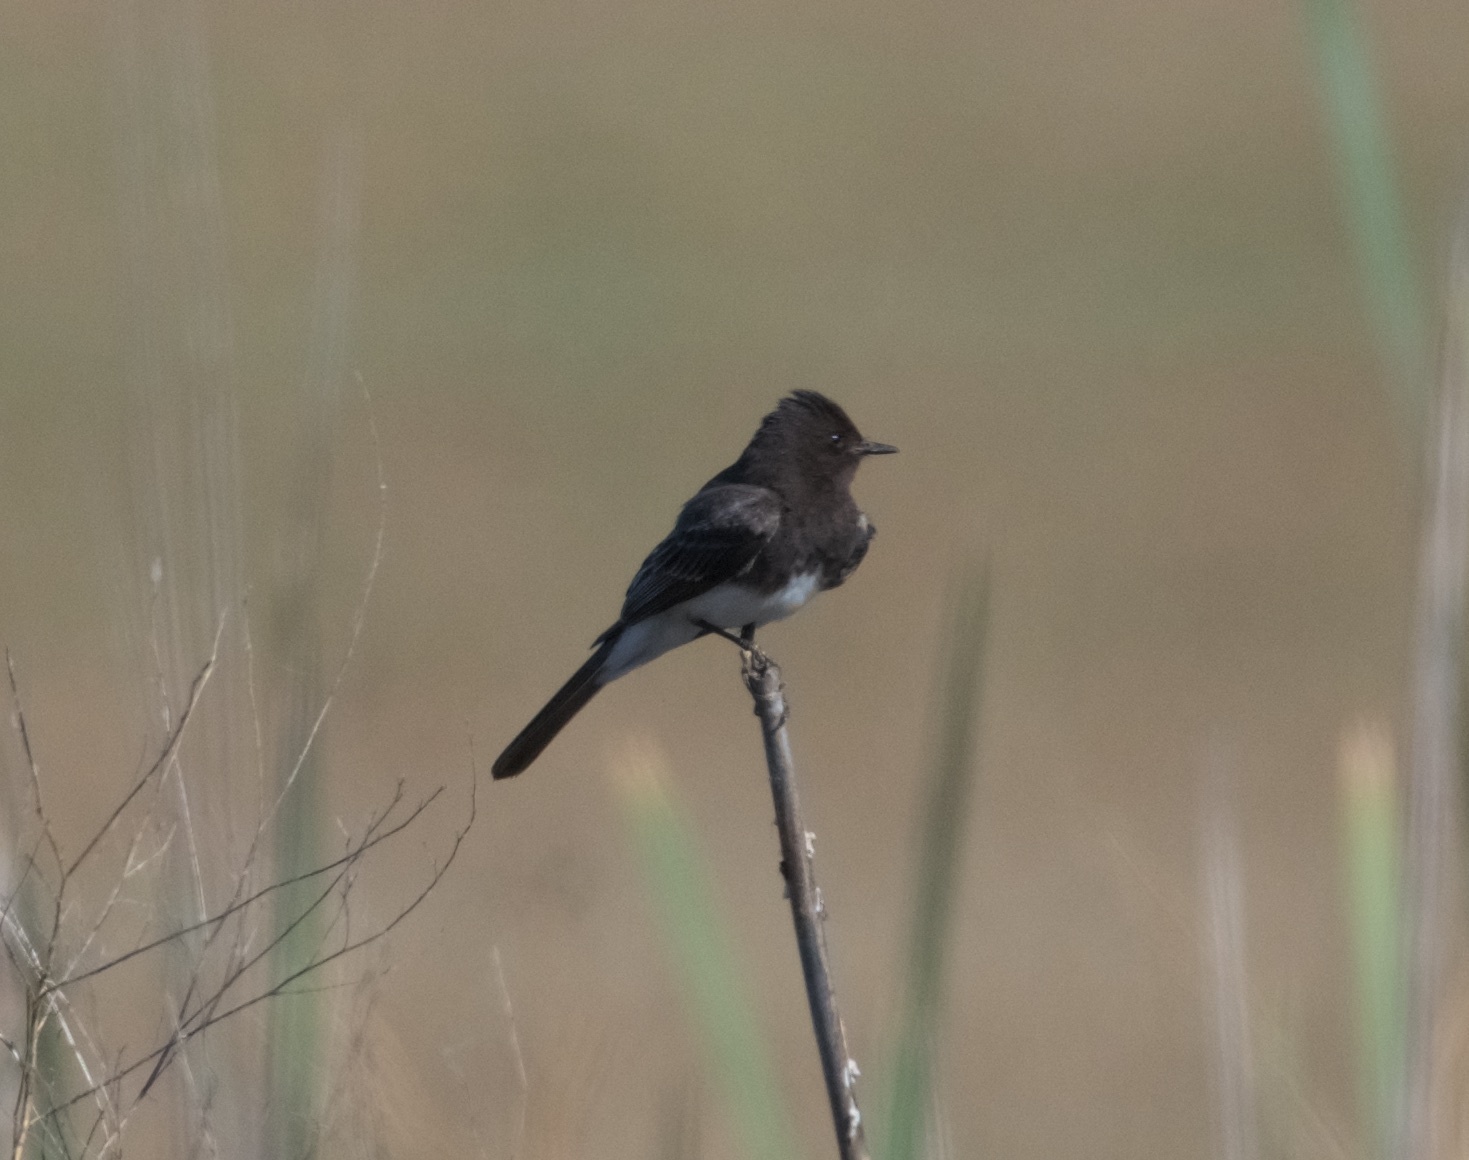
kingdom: Animalia
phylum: Chordata
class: Aves
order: Passeriformes
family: Tyrannidae
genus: Sayornis
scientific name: Sayornis nigricans
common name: Black phoebe
